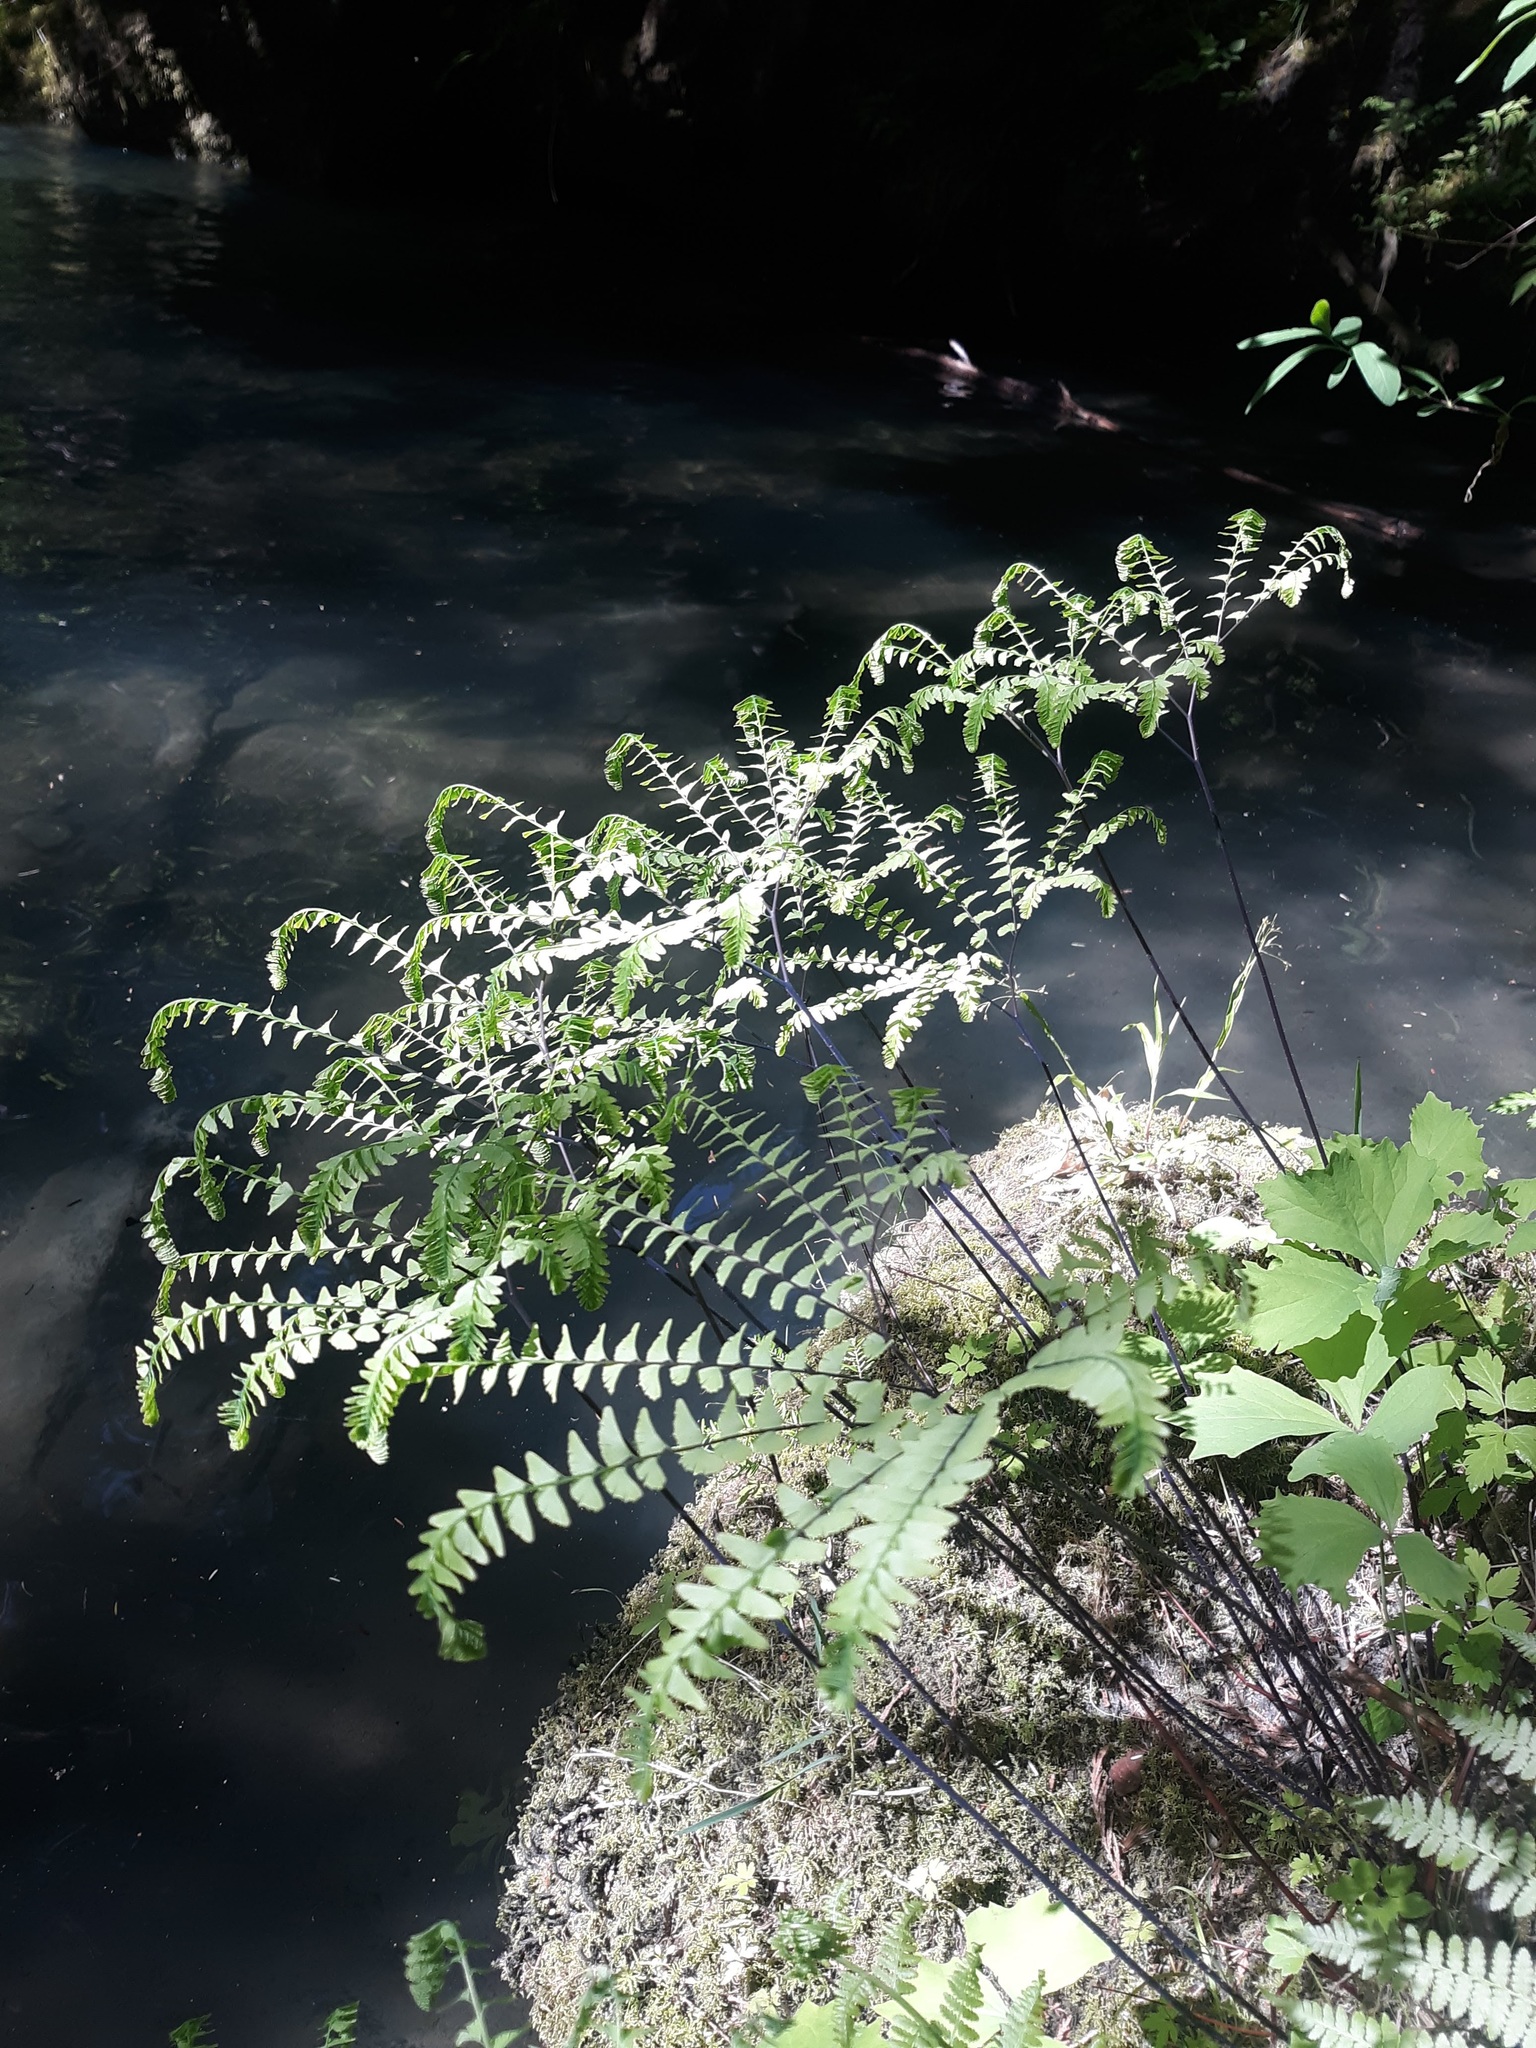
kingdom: Plantae
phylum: Tracheophyta
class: Polypodiopsida
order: Polypodiales
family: Pteridaceae
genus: Adiantum
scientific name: Adiantum aleuticum
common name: Aleutian maidenhair fern
